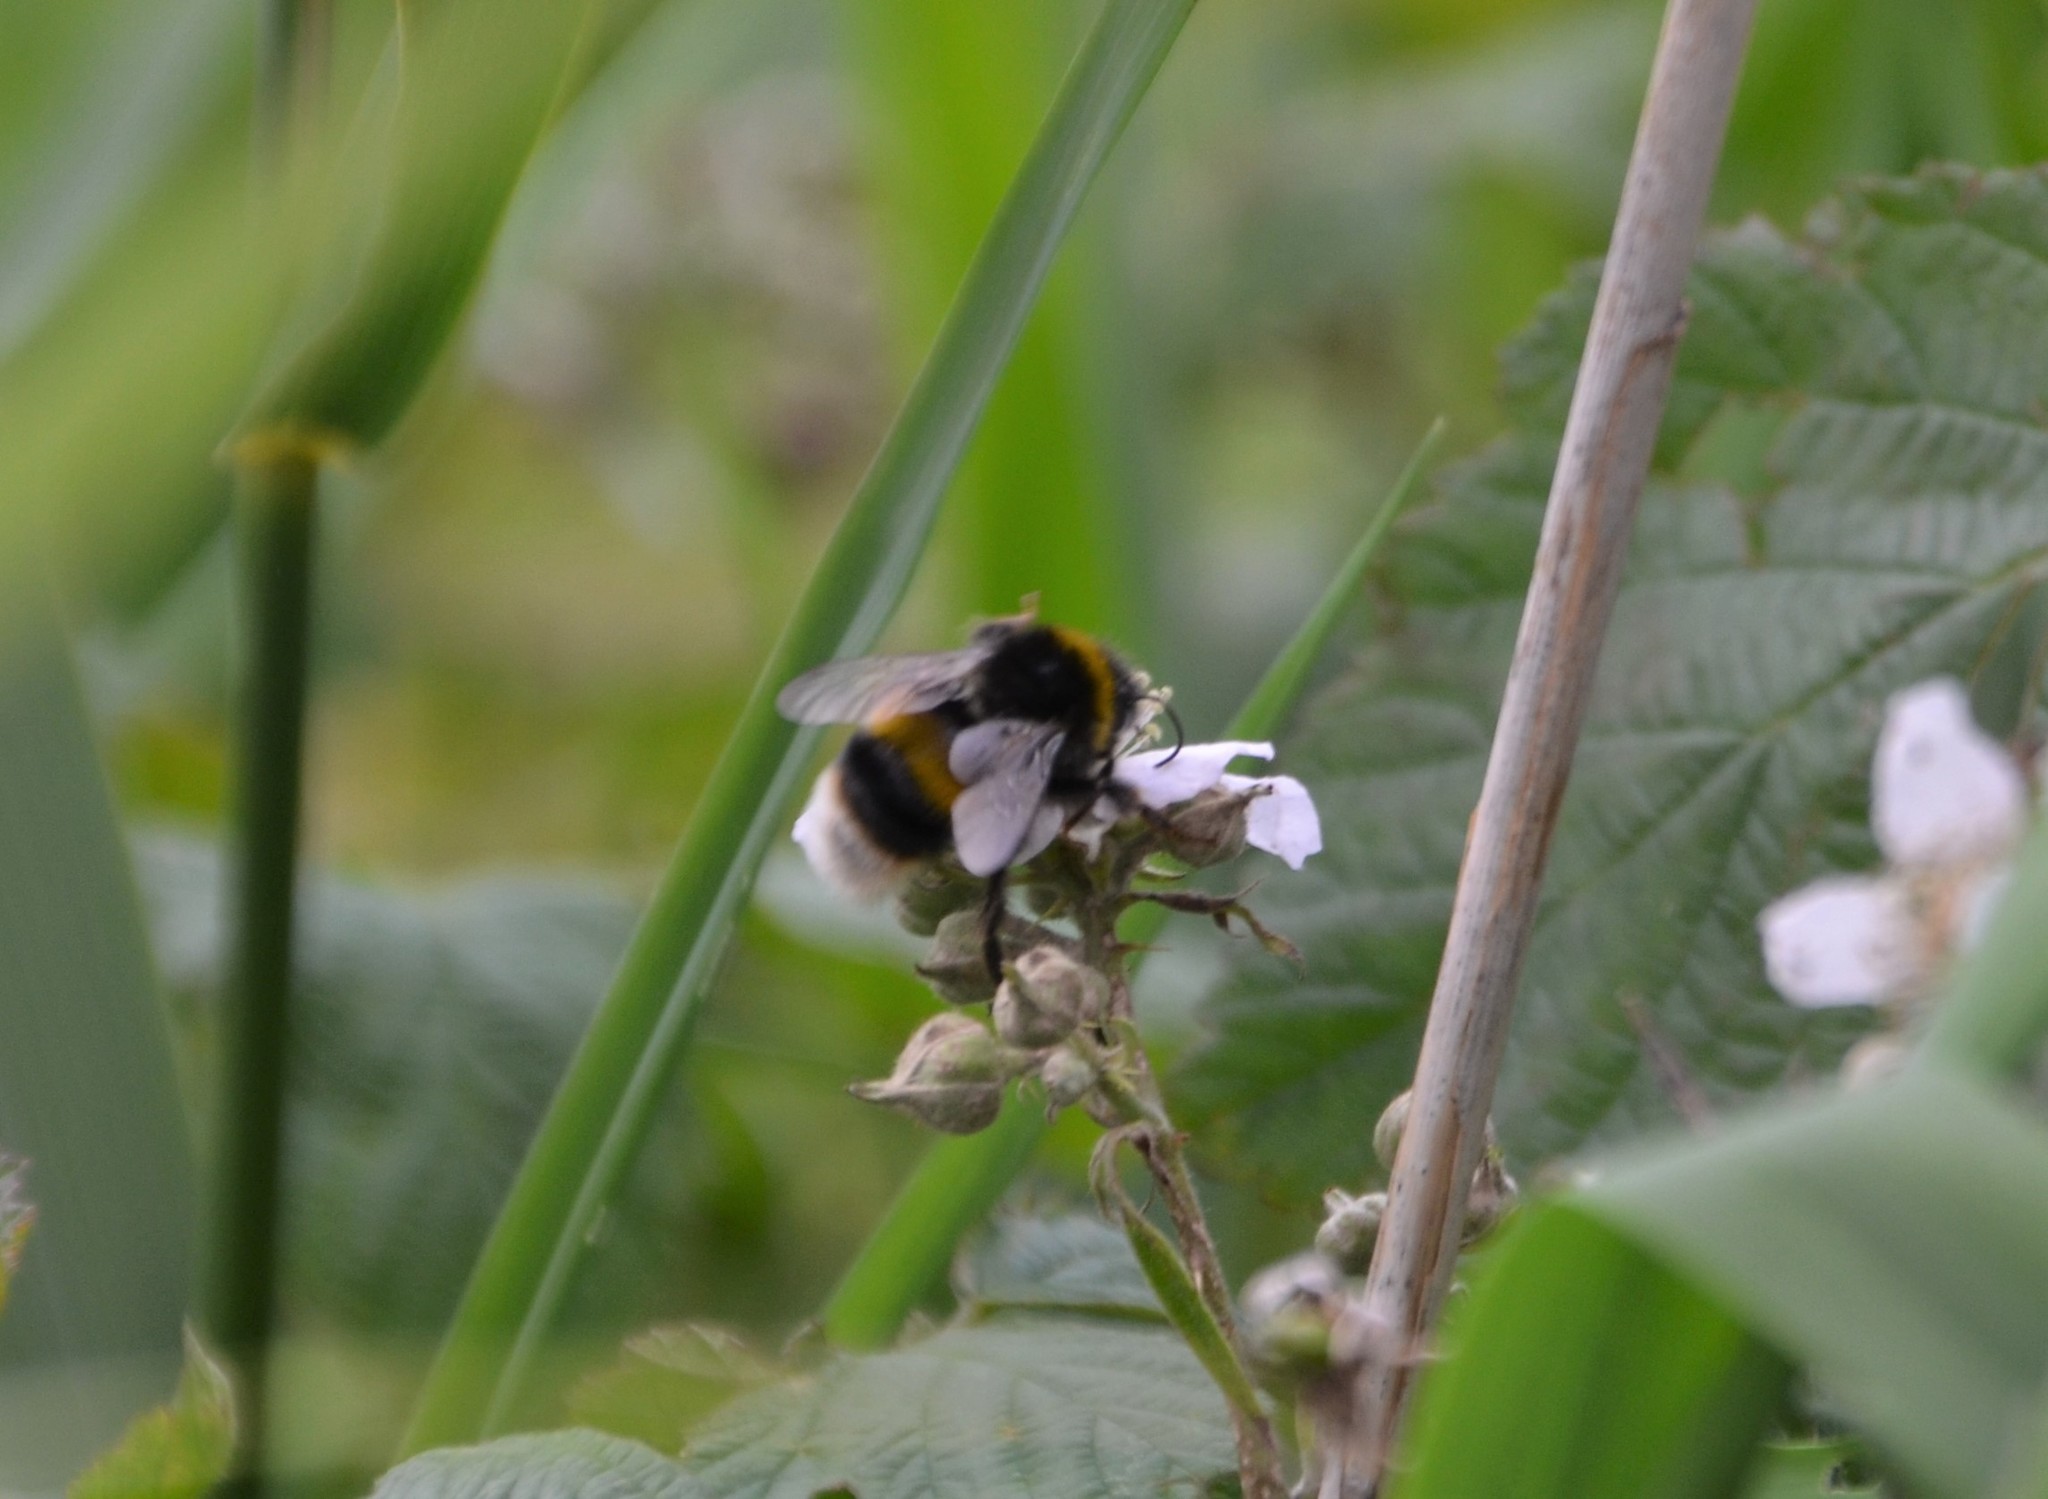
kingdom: Animalia
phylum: Arthropoda
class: Insecta
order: Hymenoptera
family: Apidae
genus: Bombus
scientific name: Bombus terrestris
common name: Buff-tailed bumblebee
